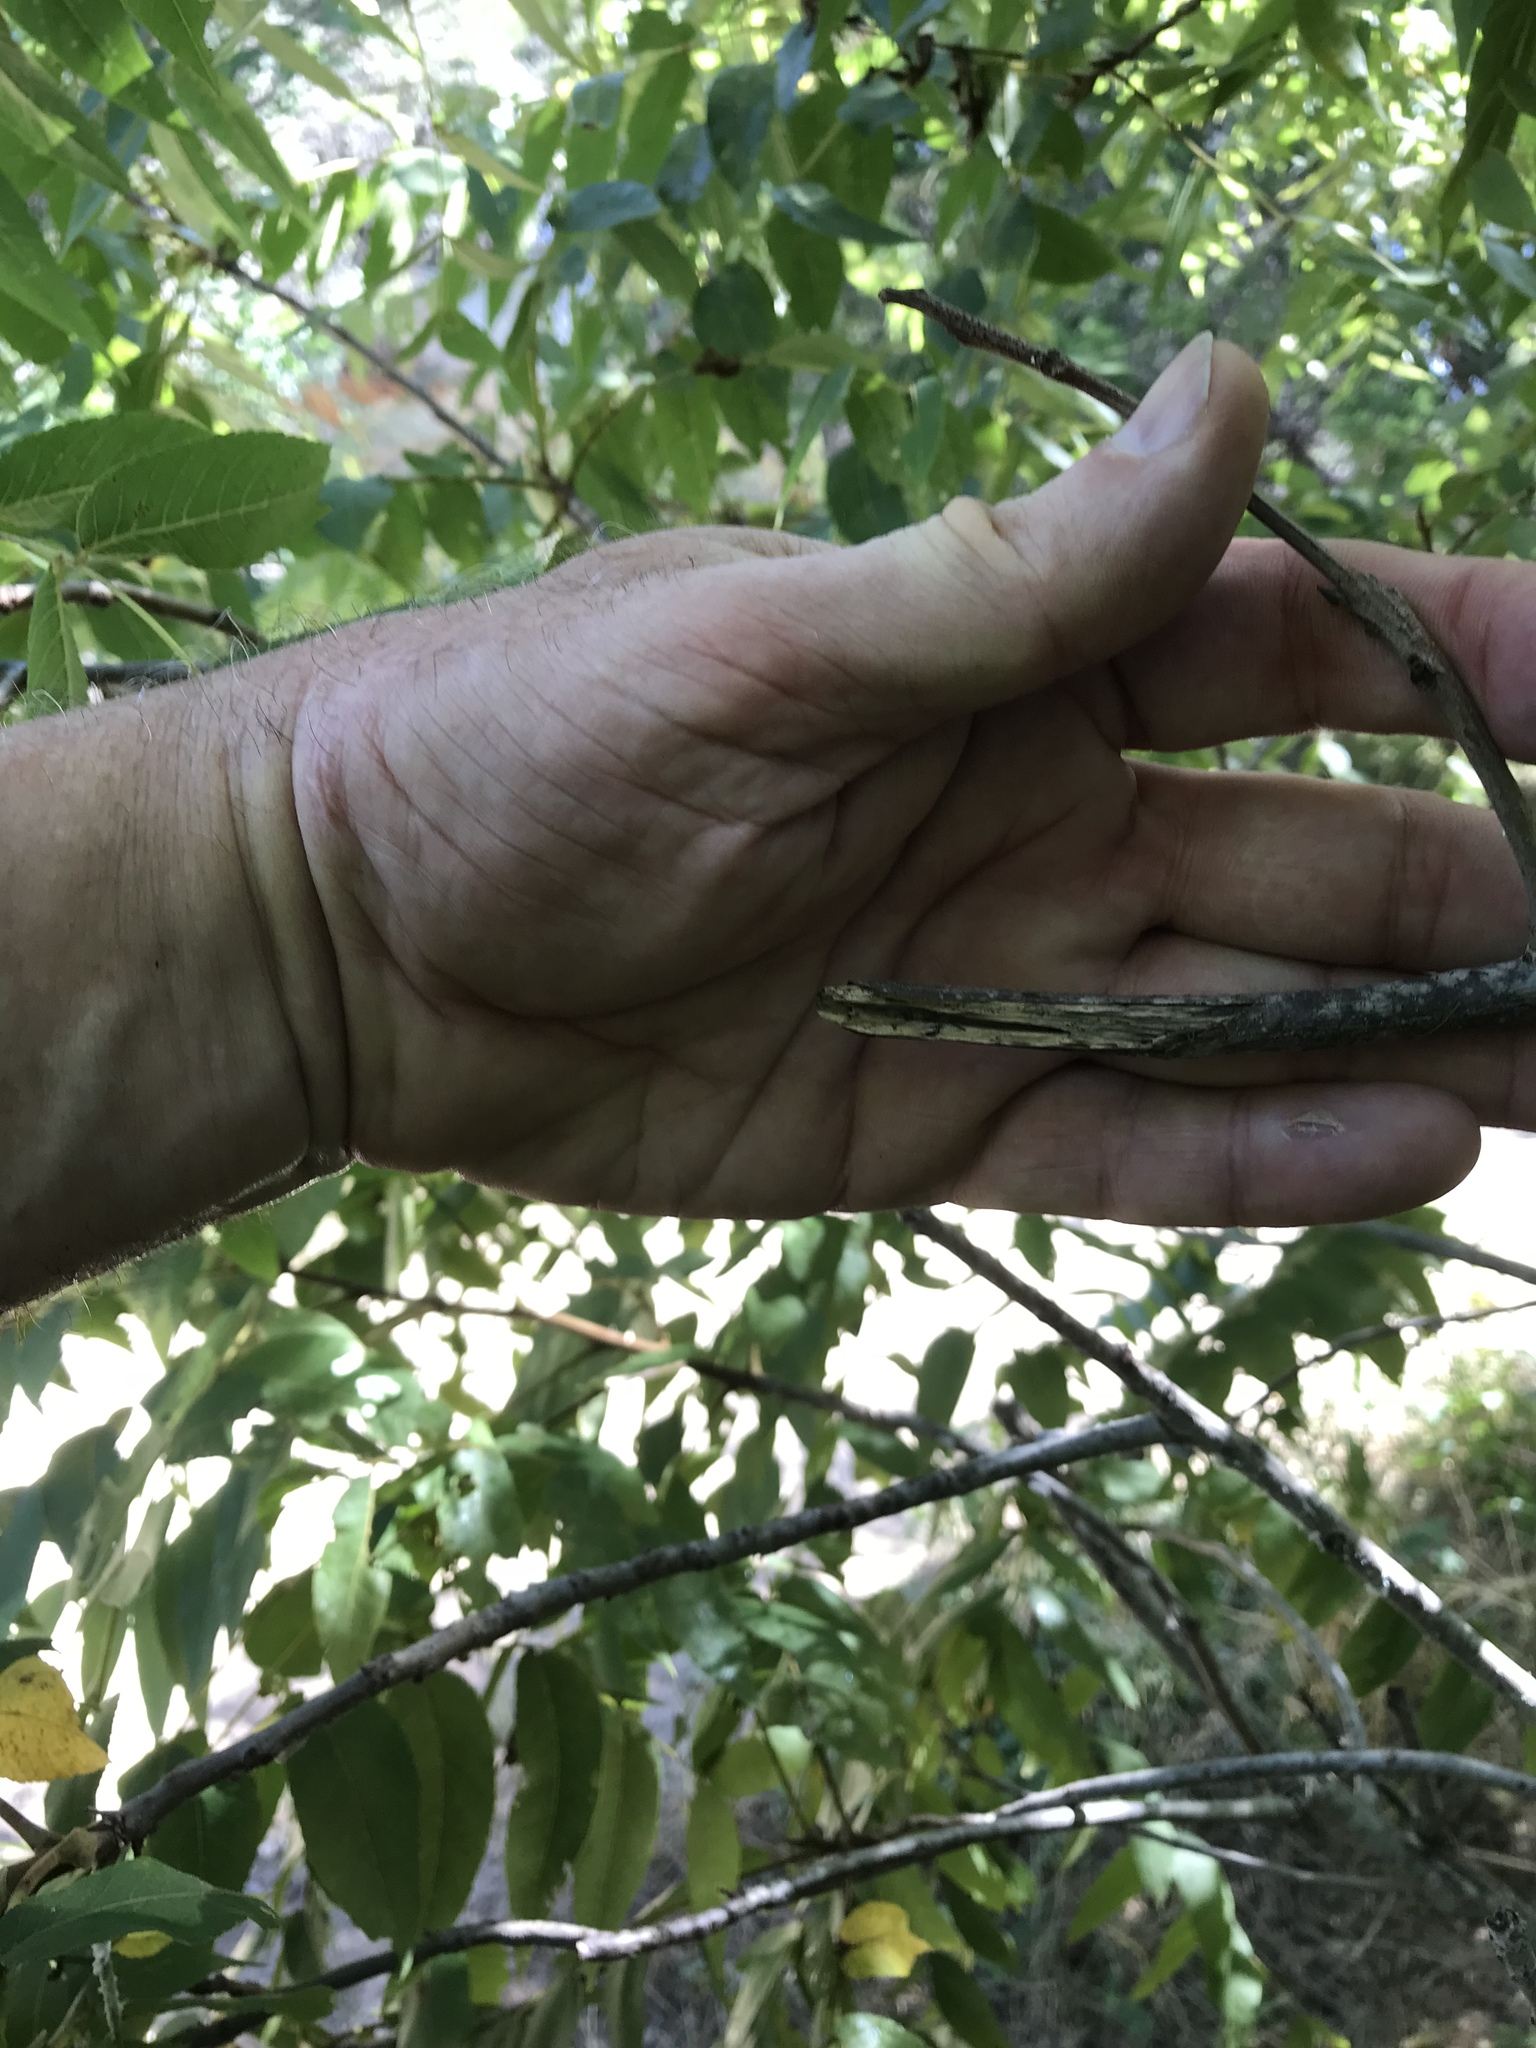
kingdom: Plantae
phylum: Tracheophyta
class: Magnoliopsida
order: Fagales
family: Juglandaceae
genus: Juglans
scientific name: Juglans major
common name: Arizona walnut
